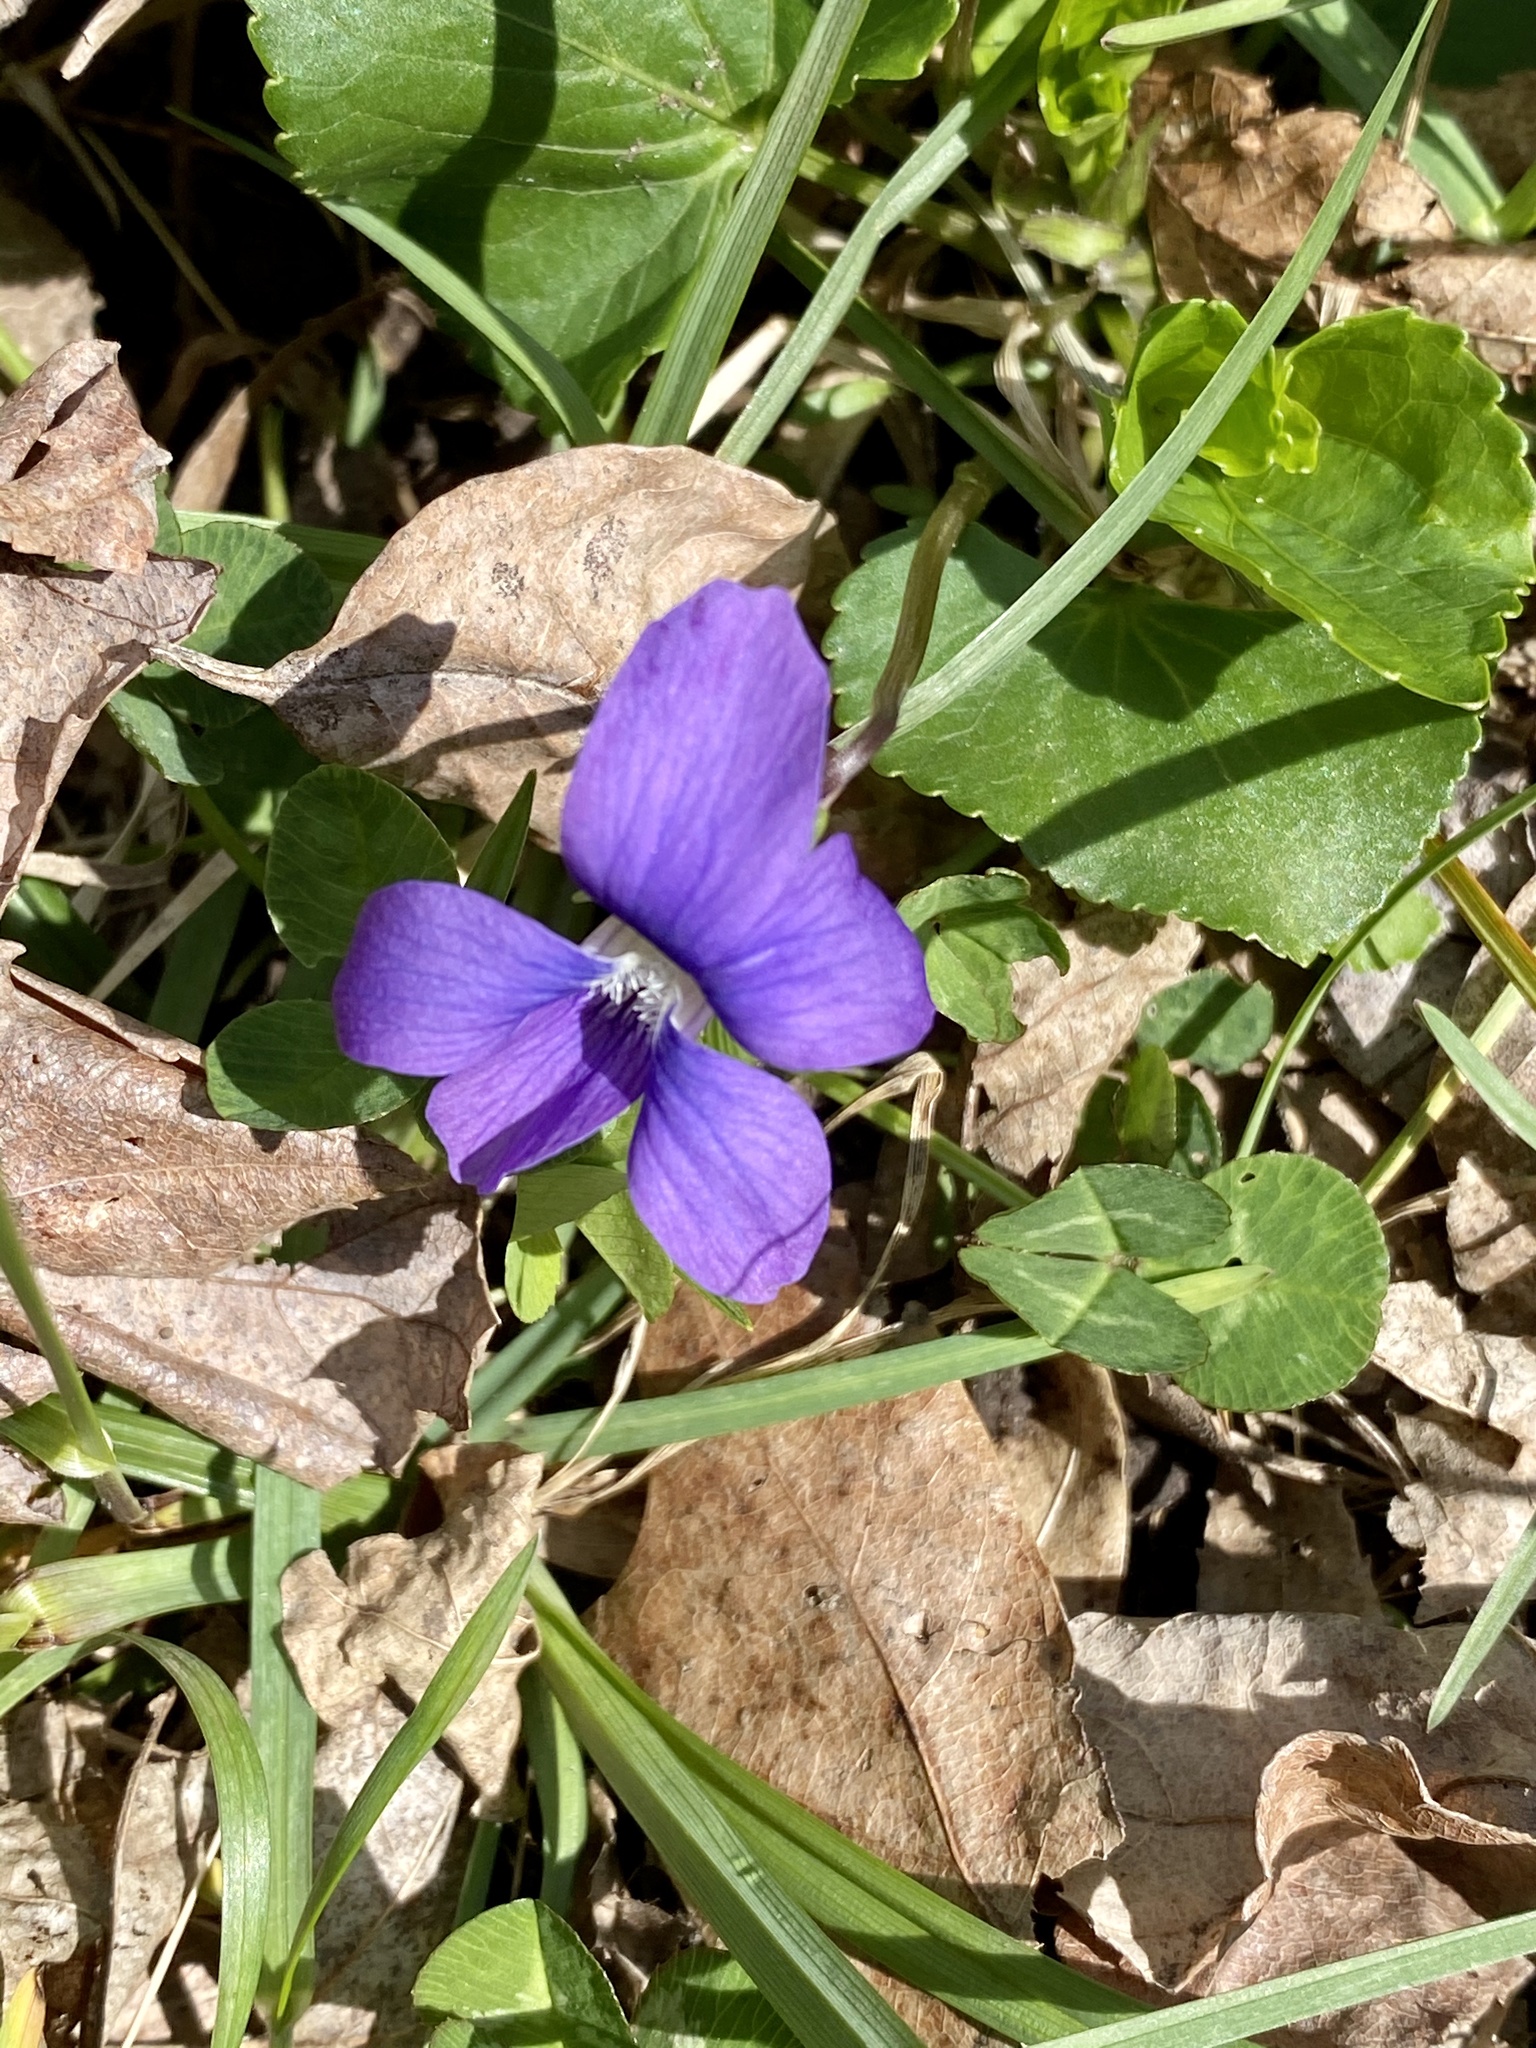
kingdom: Plantae
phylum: Tracheophyta
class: Magnoliopsida
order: Malpighiales
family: Violaceae
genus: Viola
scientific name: Viola sororia
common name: Dooryard violet
